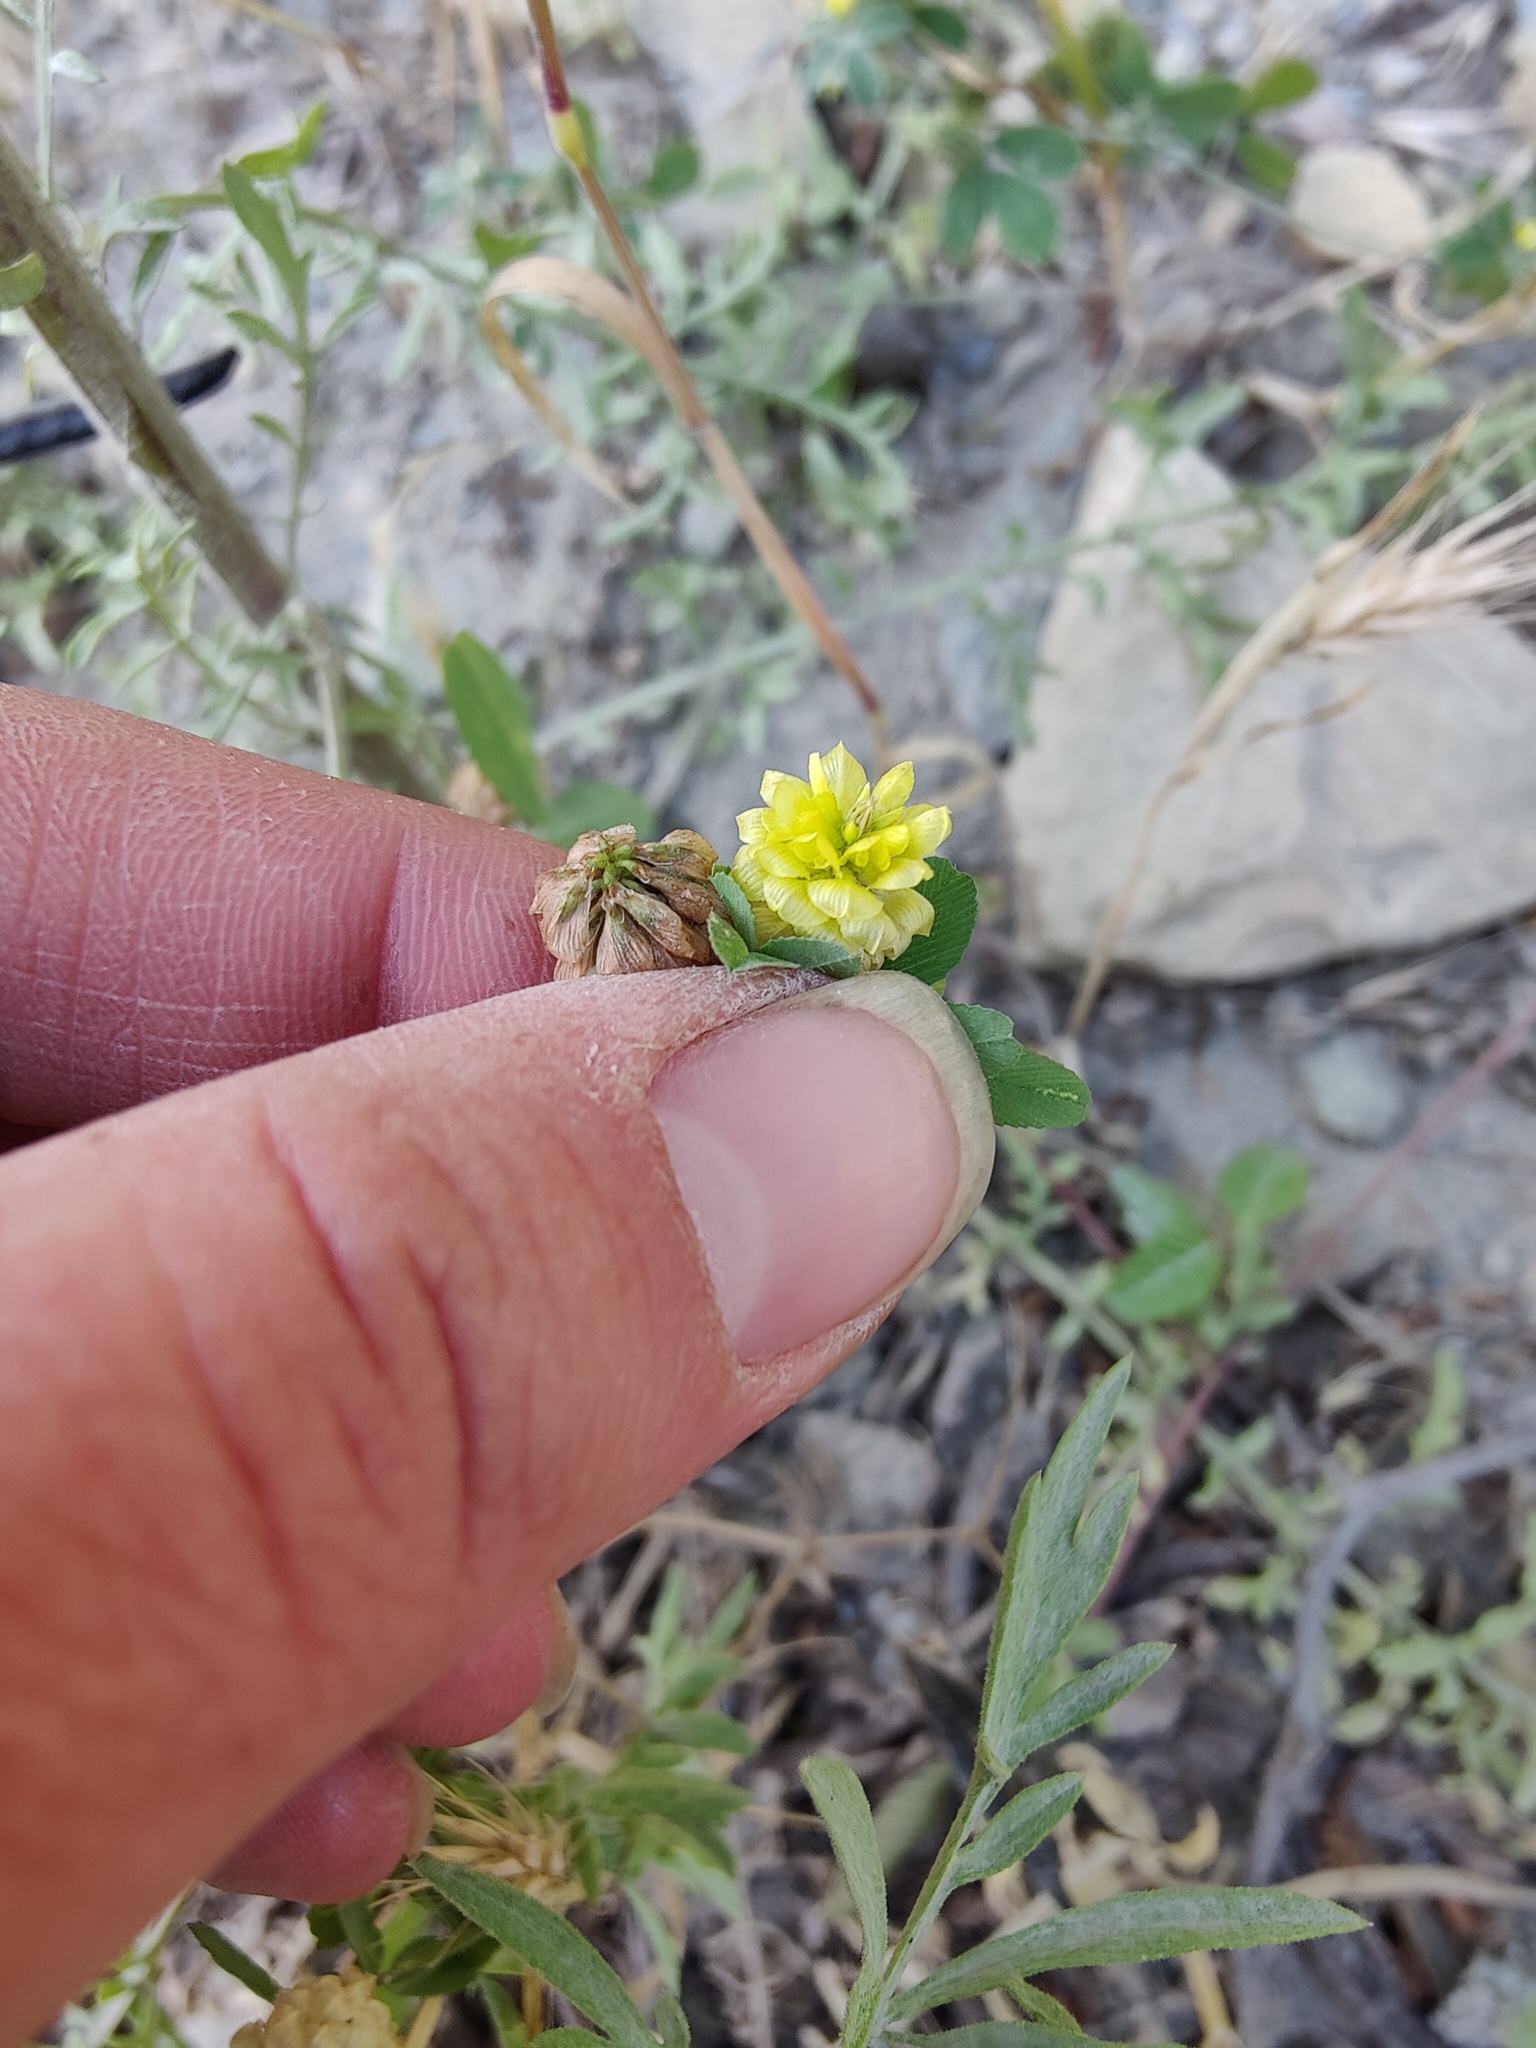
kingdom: Plantae
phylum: Tracheophyta
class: Magnoliopsida
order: Fabales
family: Fabaceae
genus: Trifolium
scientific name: Trifolium campestre
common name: Field clover
